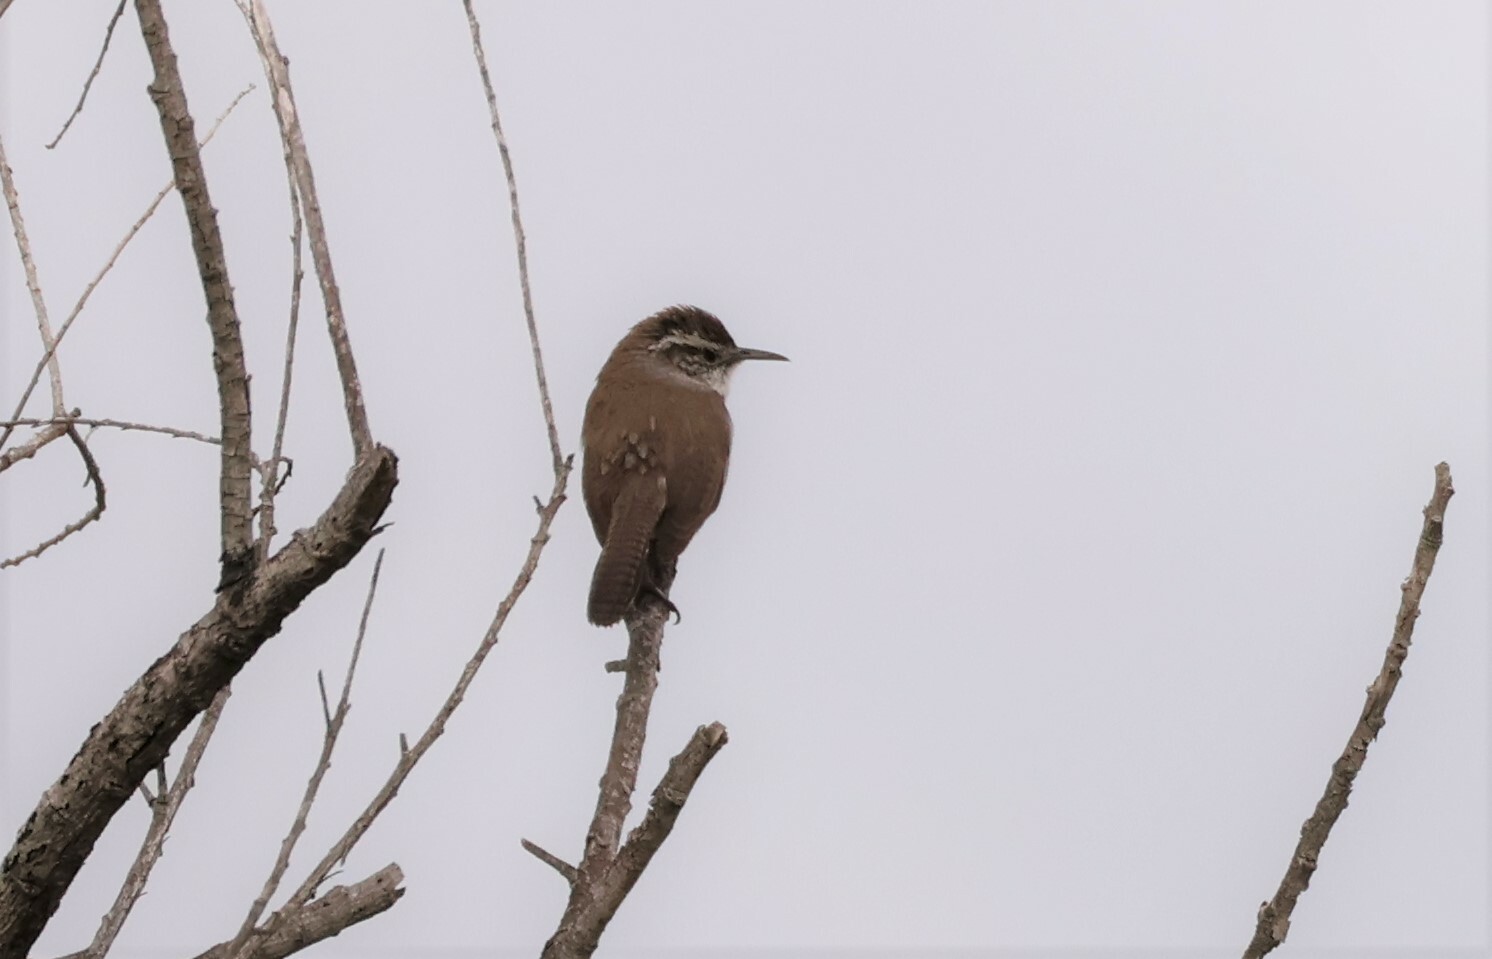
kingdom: Animalia
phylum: Chordata
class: Aves
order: Passeriformes
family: Troglodytidae
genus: Thryomanes
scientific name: Thryomanes bewickii
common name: Bewick's wren
